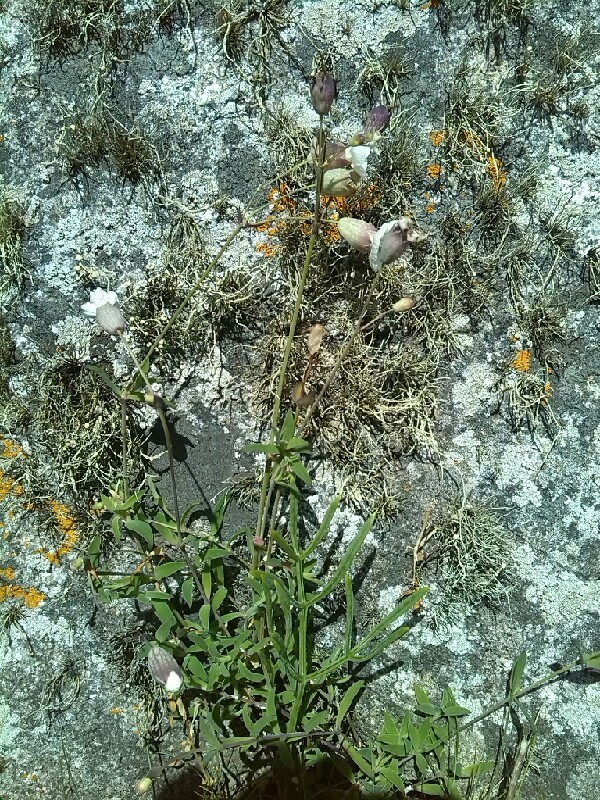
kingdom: Plantae
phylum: Tracheophyta
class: Magnoliopsida
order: Caryophyllales
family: Caryophyllaceae
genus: Silene
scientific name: Silene uniflora
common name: Sea campion
